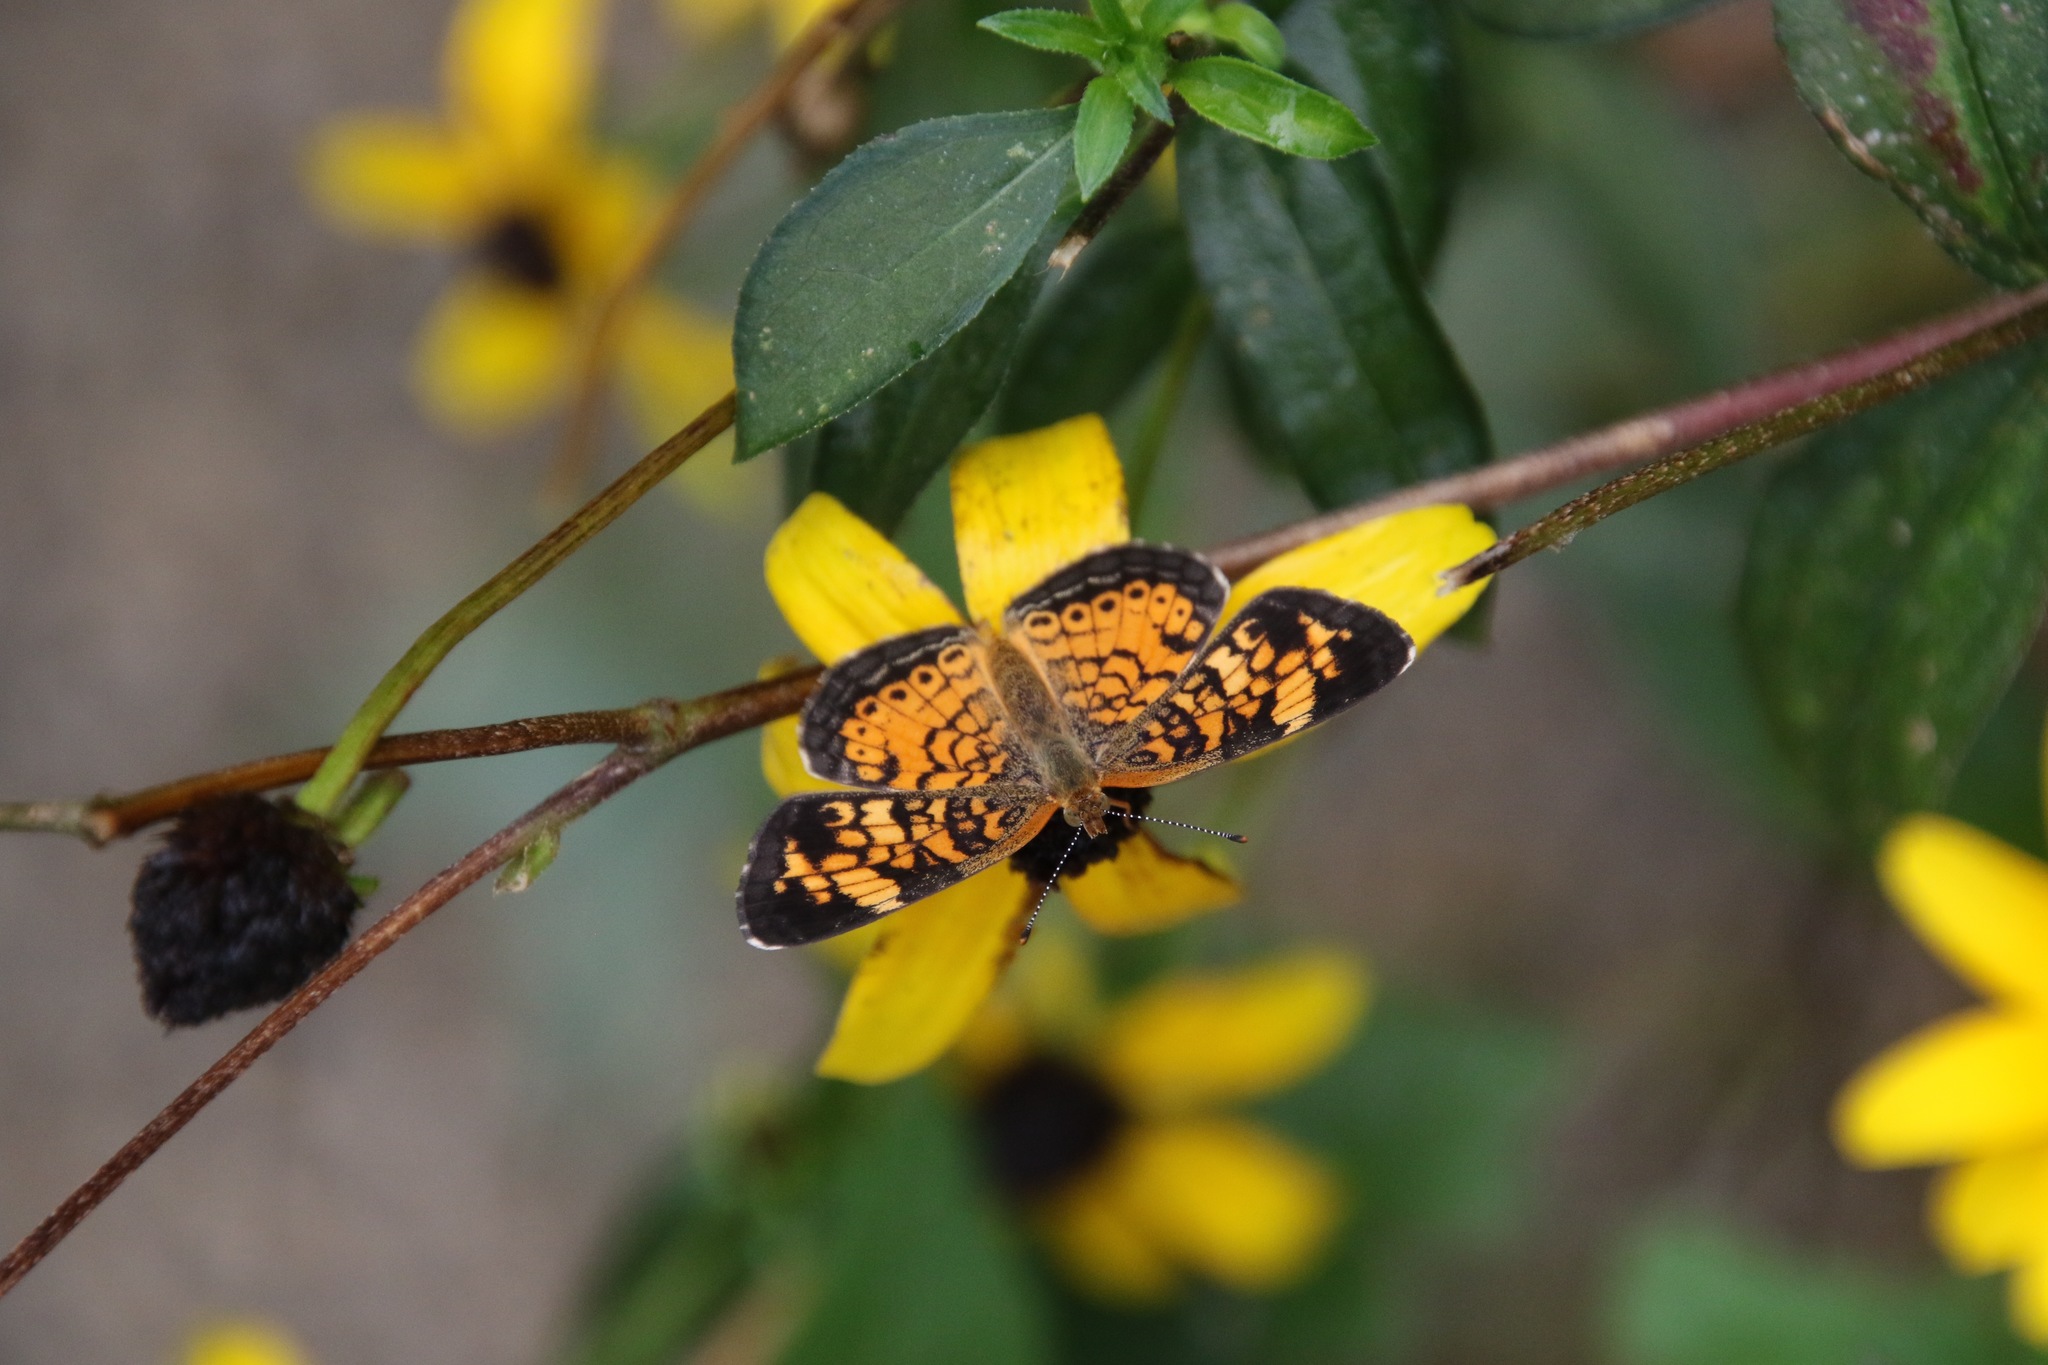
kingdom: Animalia
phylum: Arthropoda
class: Insecta
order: Lepidoptera
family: Nymphalidae
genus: Phyciodes
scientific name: Phyciodes tharos
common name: Pearl crescent
